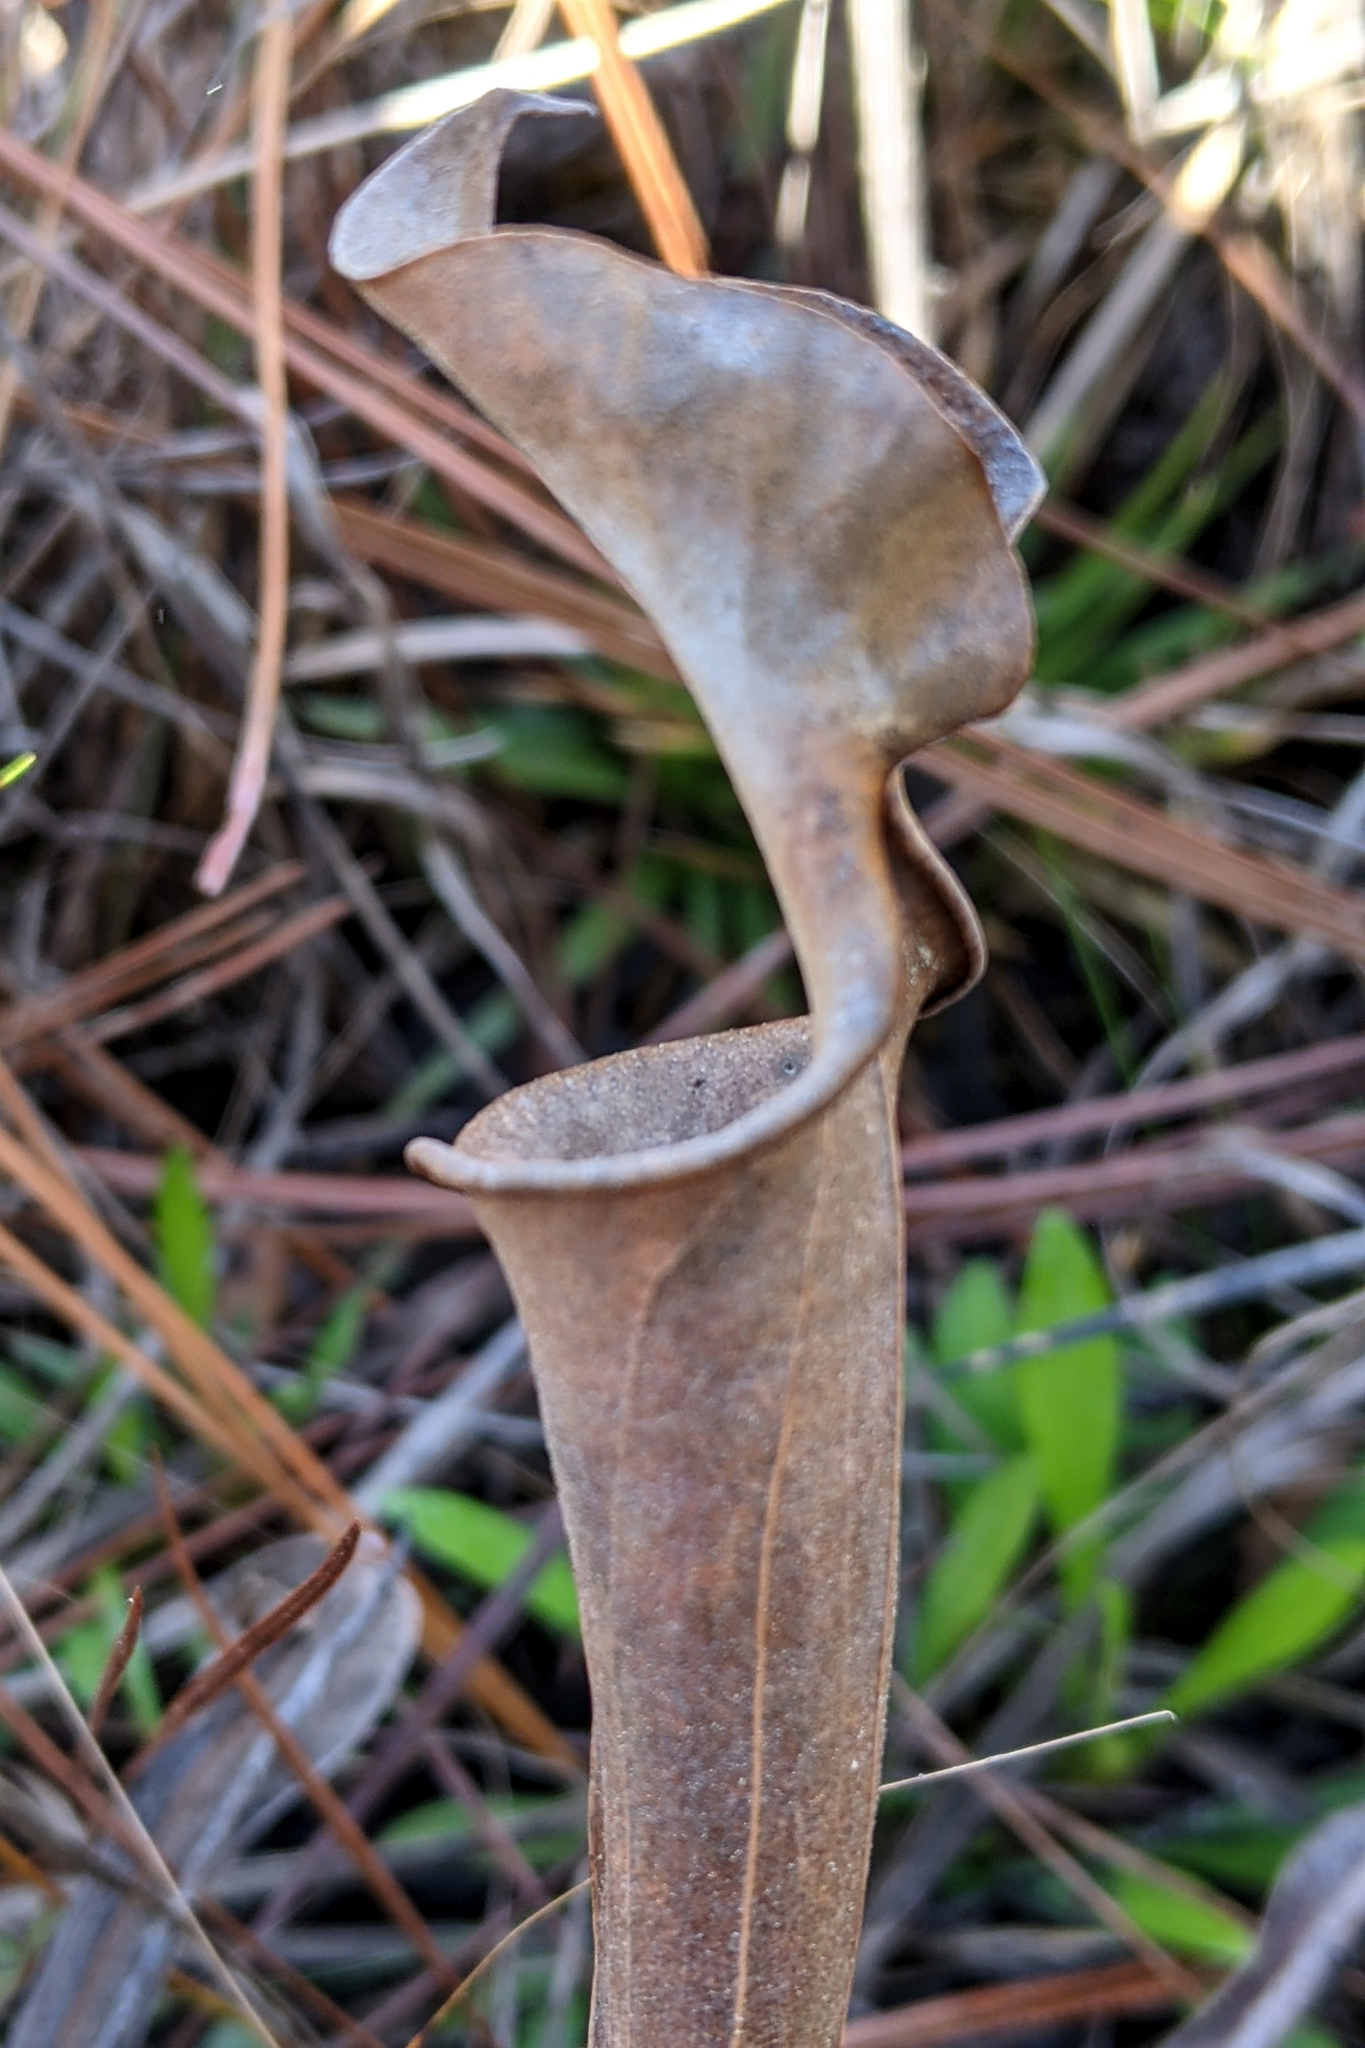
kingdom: Plantae
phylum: Tracheophyta
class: Magnoliopsida
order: Ericales
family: Sarraceniaceae
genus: Sarracenia
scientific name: Sarracenia flava
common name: Trumpets
